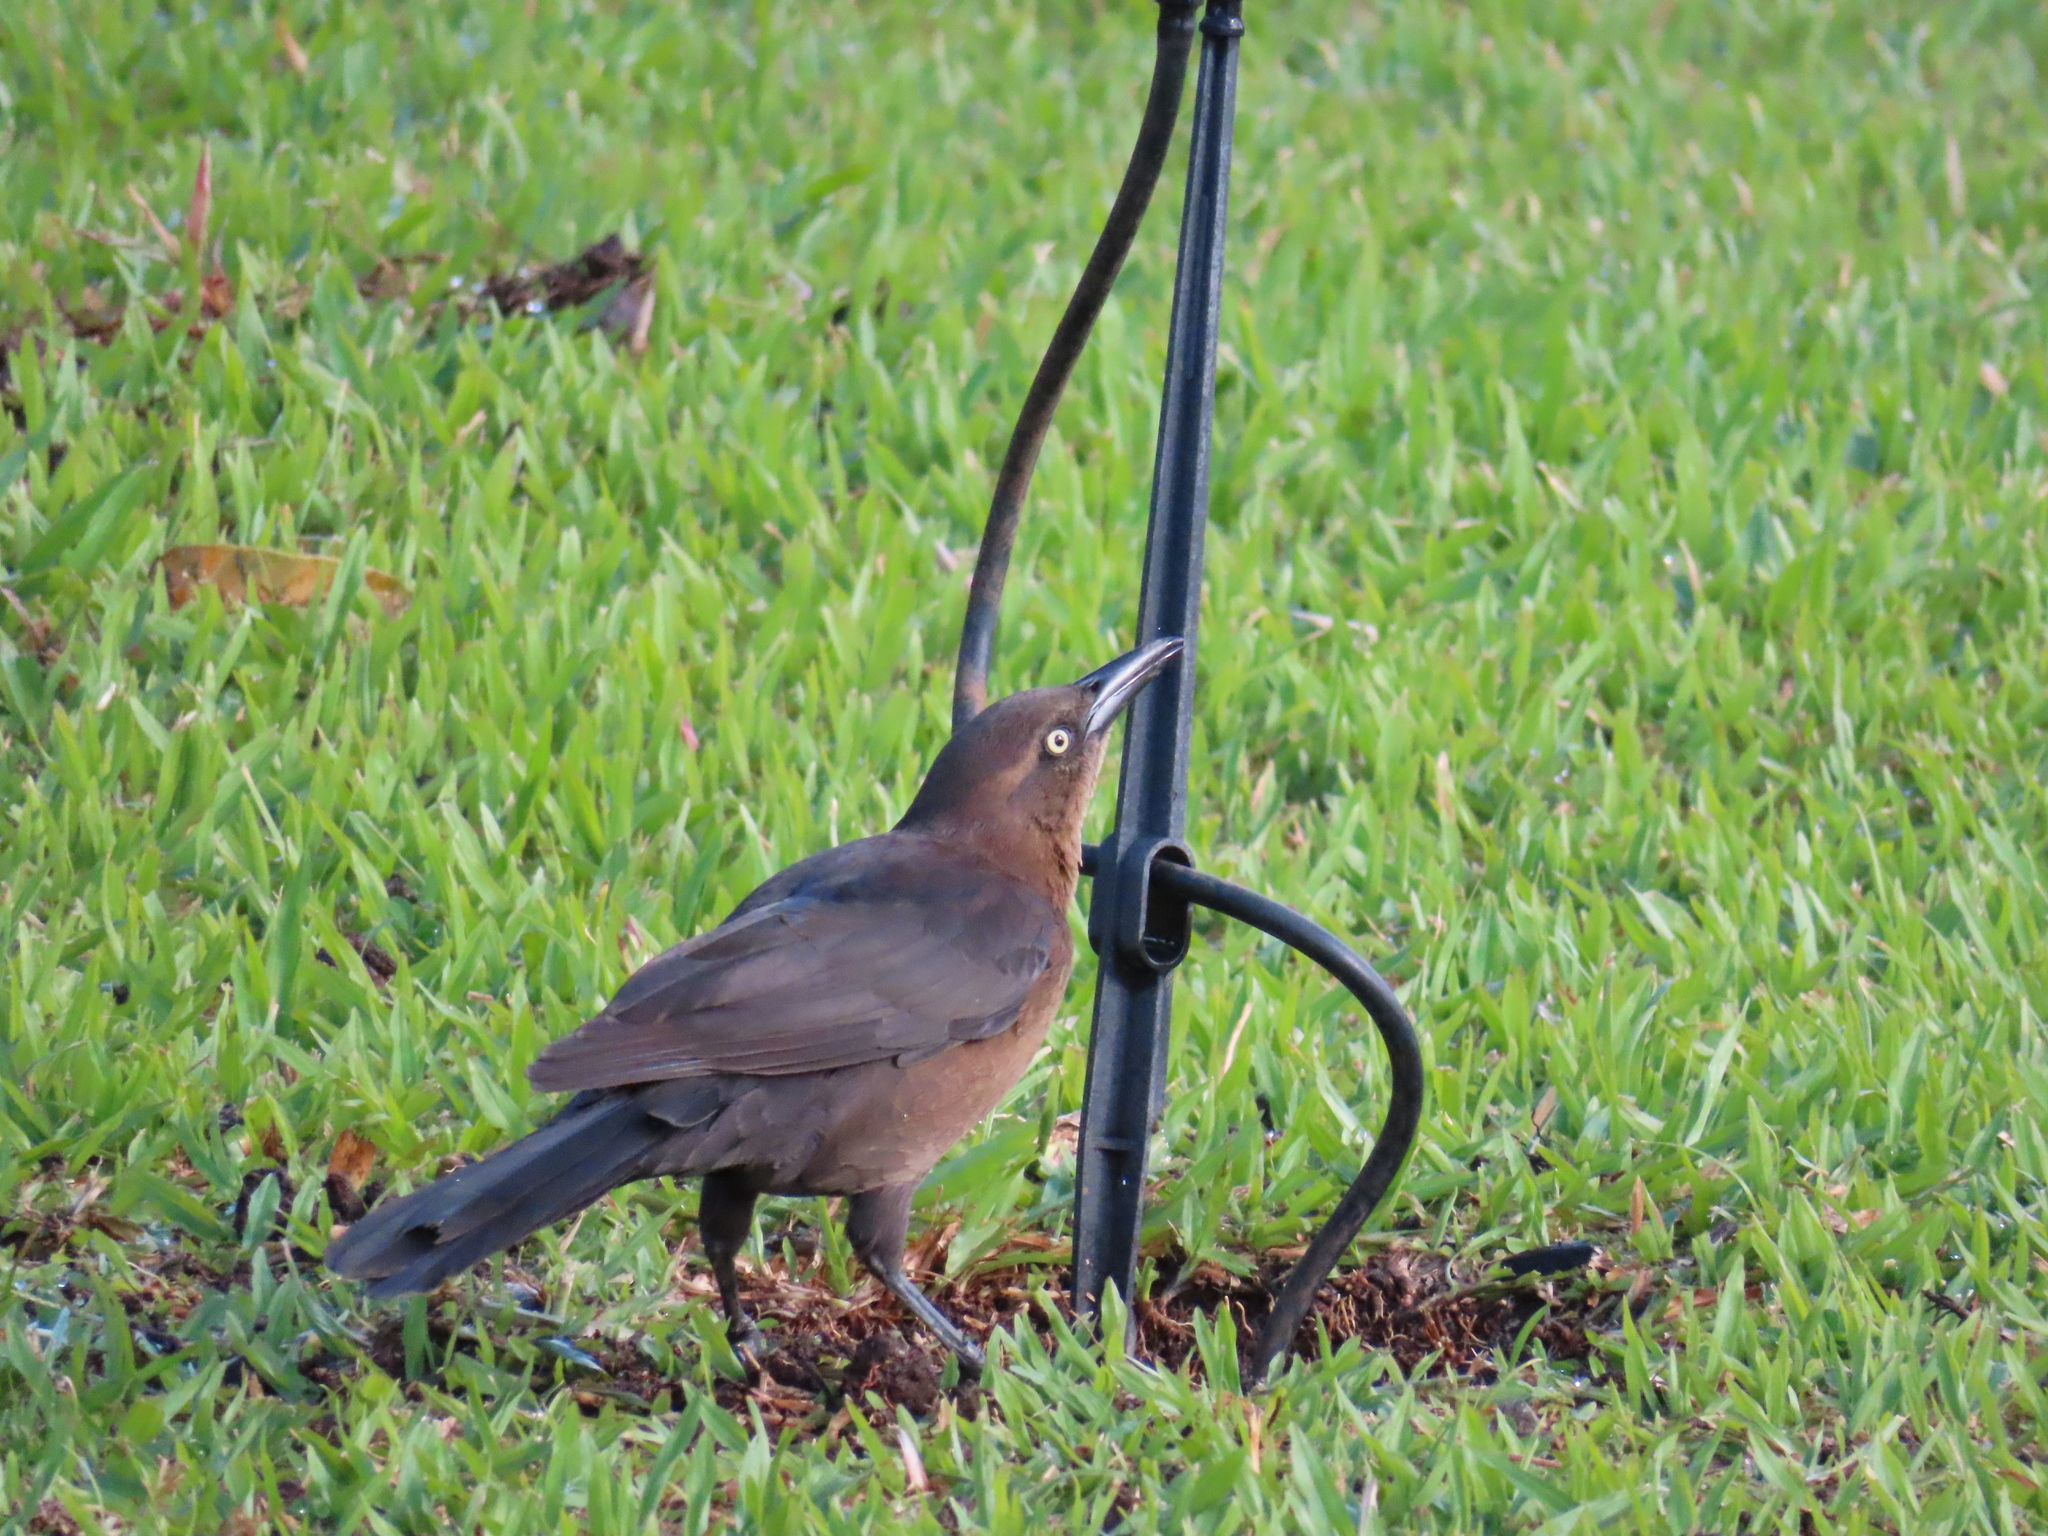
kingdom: Animalia
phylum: Chordata
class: Aves
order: Passeriformes
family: Icteridae
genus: Quiscalus
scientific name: Quiscalus mexicanus
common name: Great-tailed grackle
